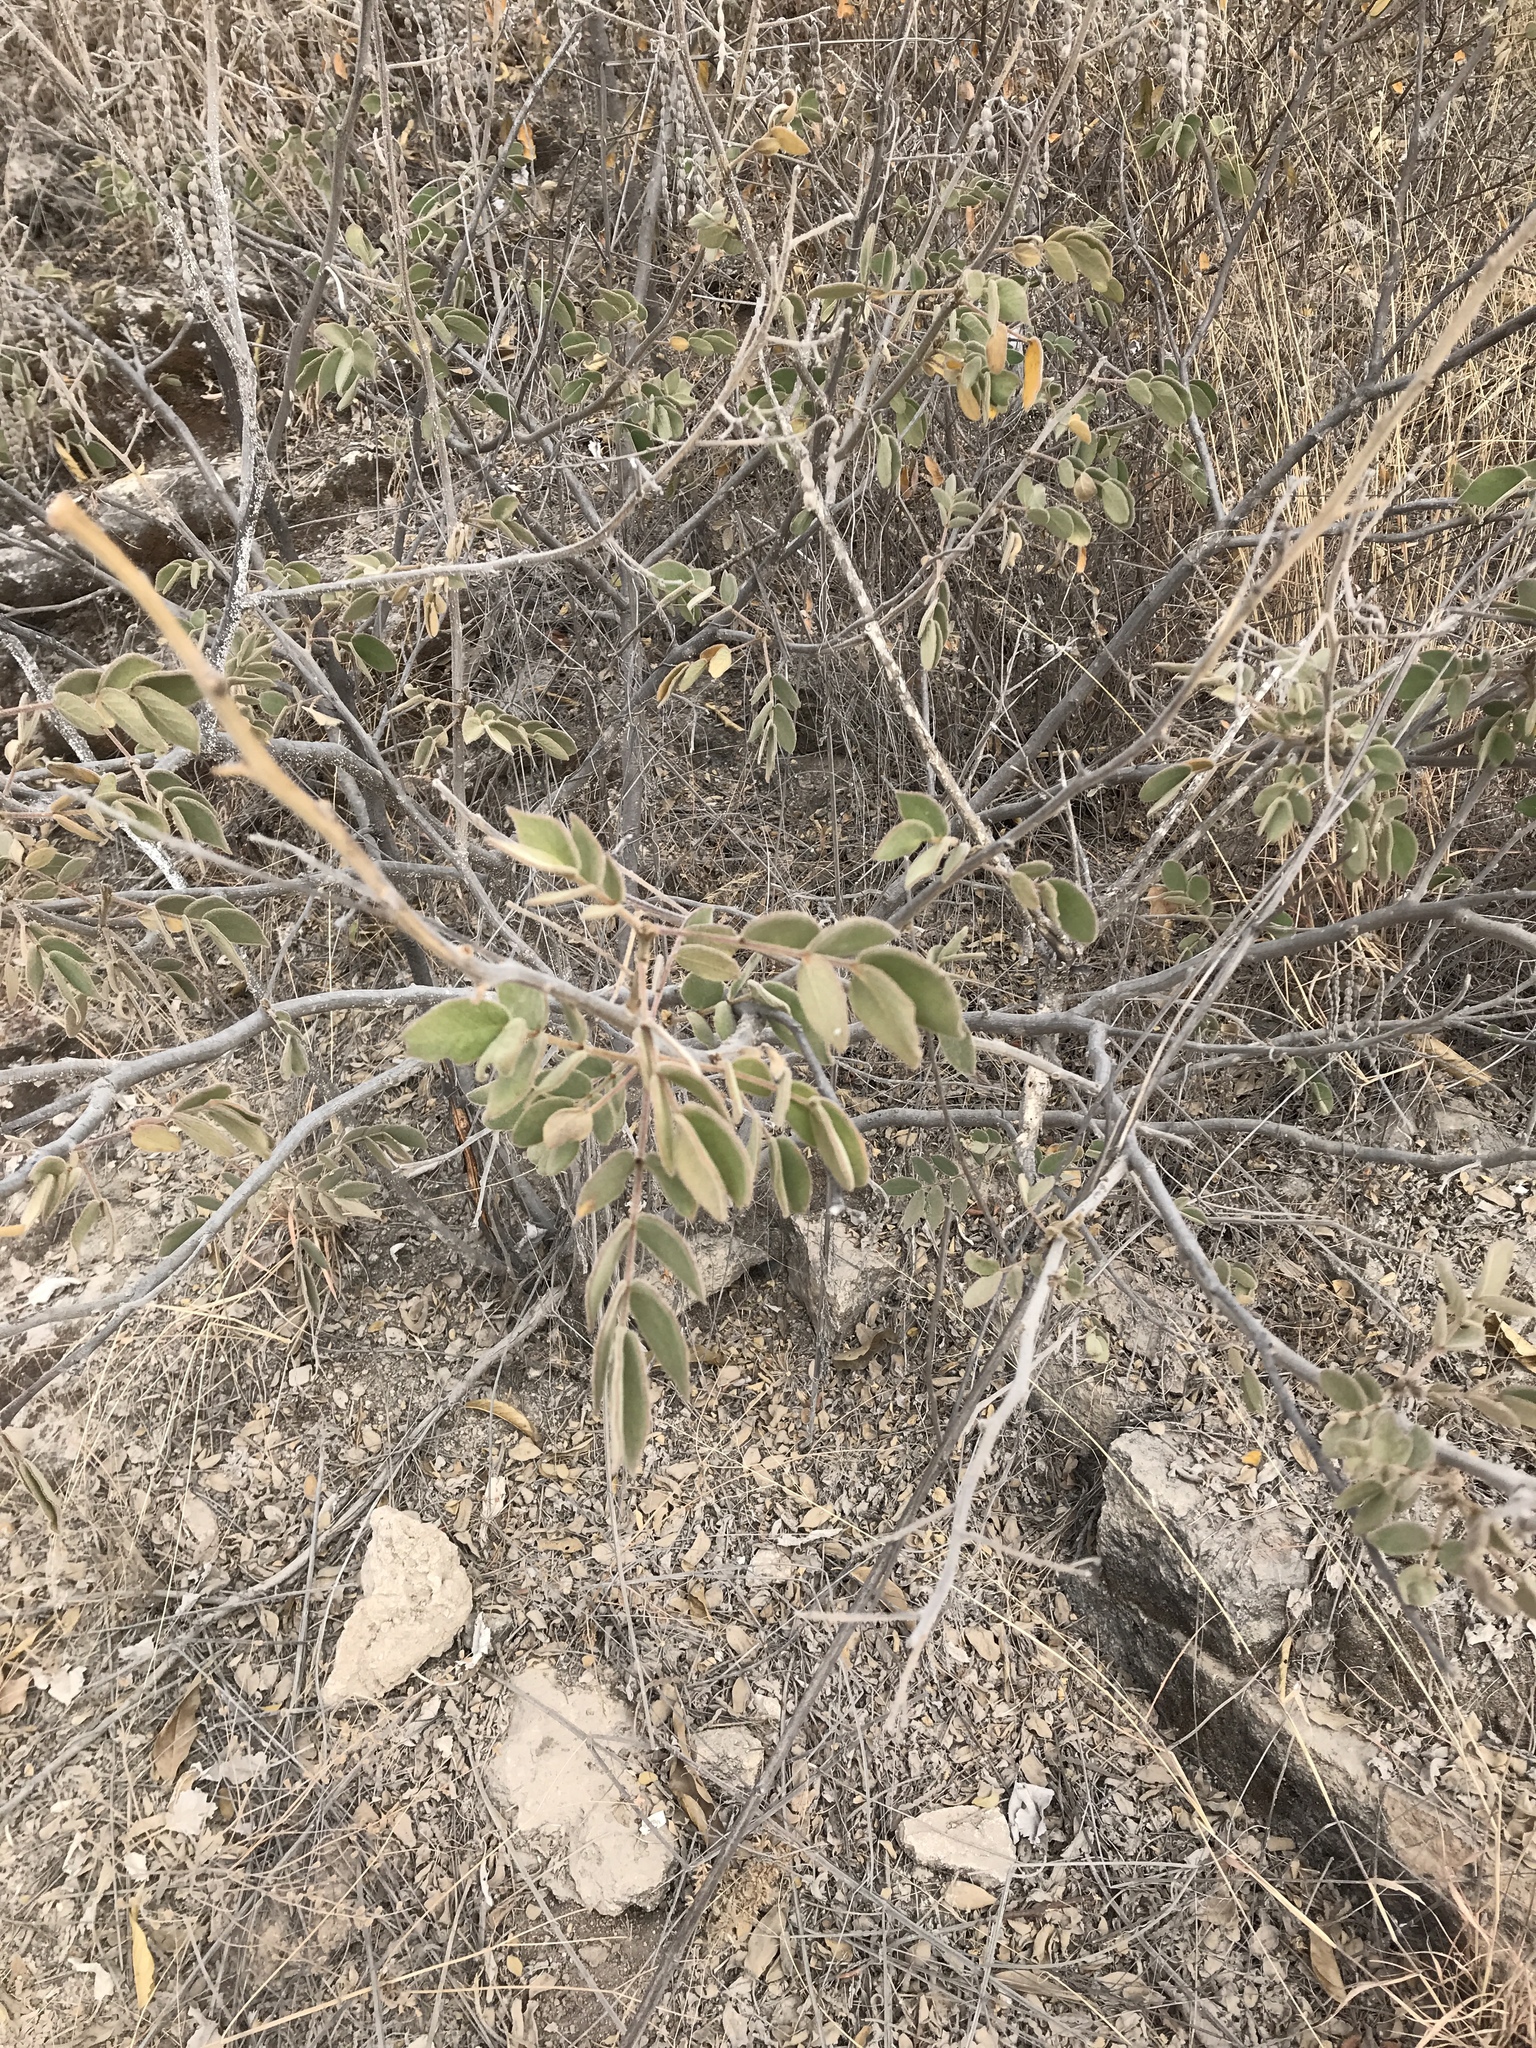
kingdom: Plantae
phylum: Tracheophyta
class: Magnoliopsida
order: Fabales
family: Fabaceae
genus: Senna
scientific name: Senna villosa
